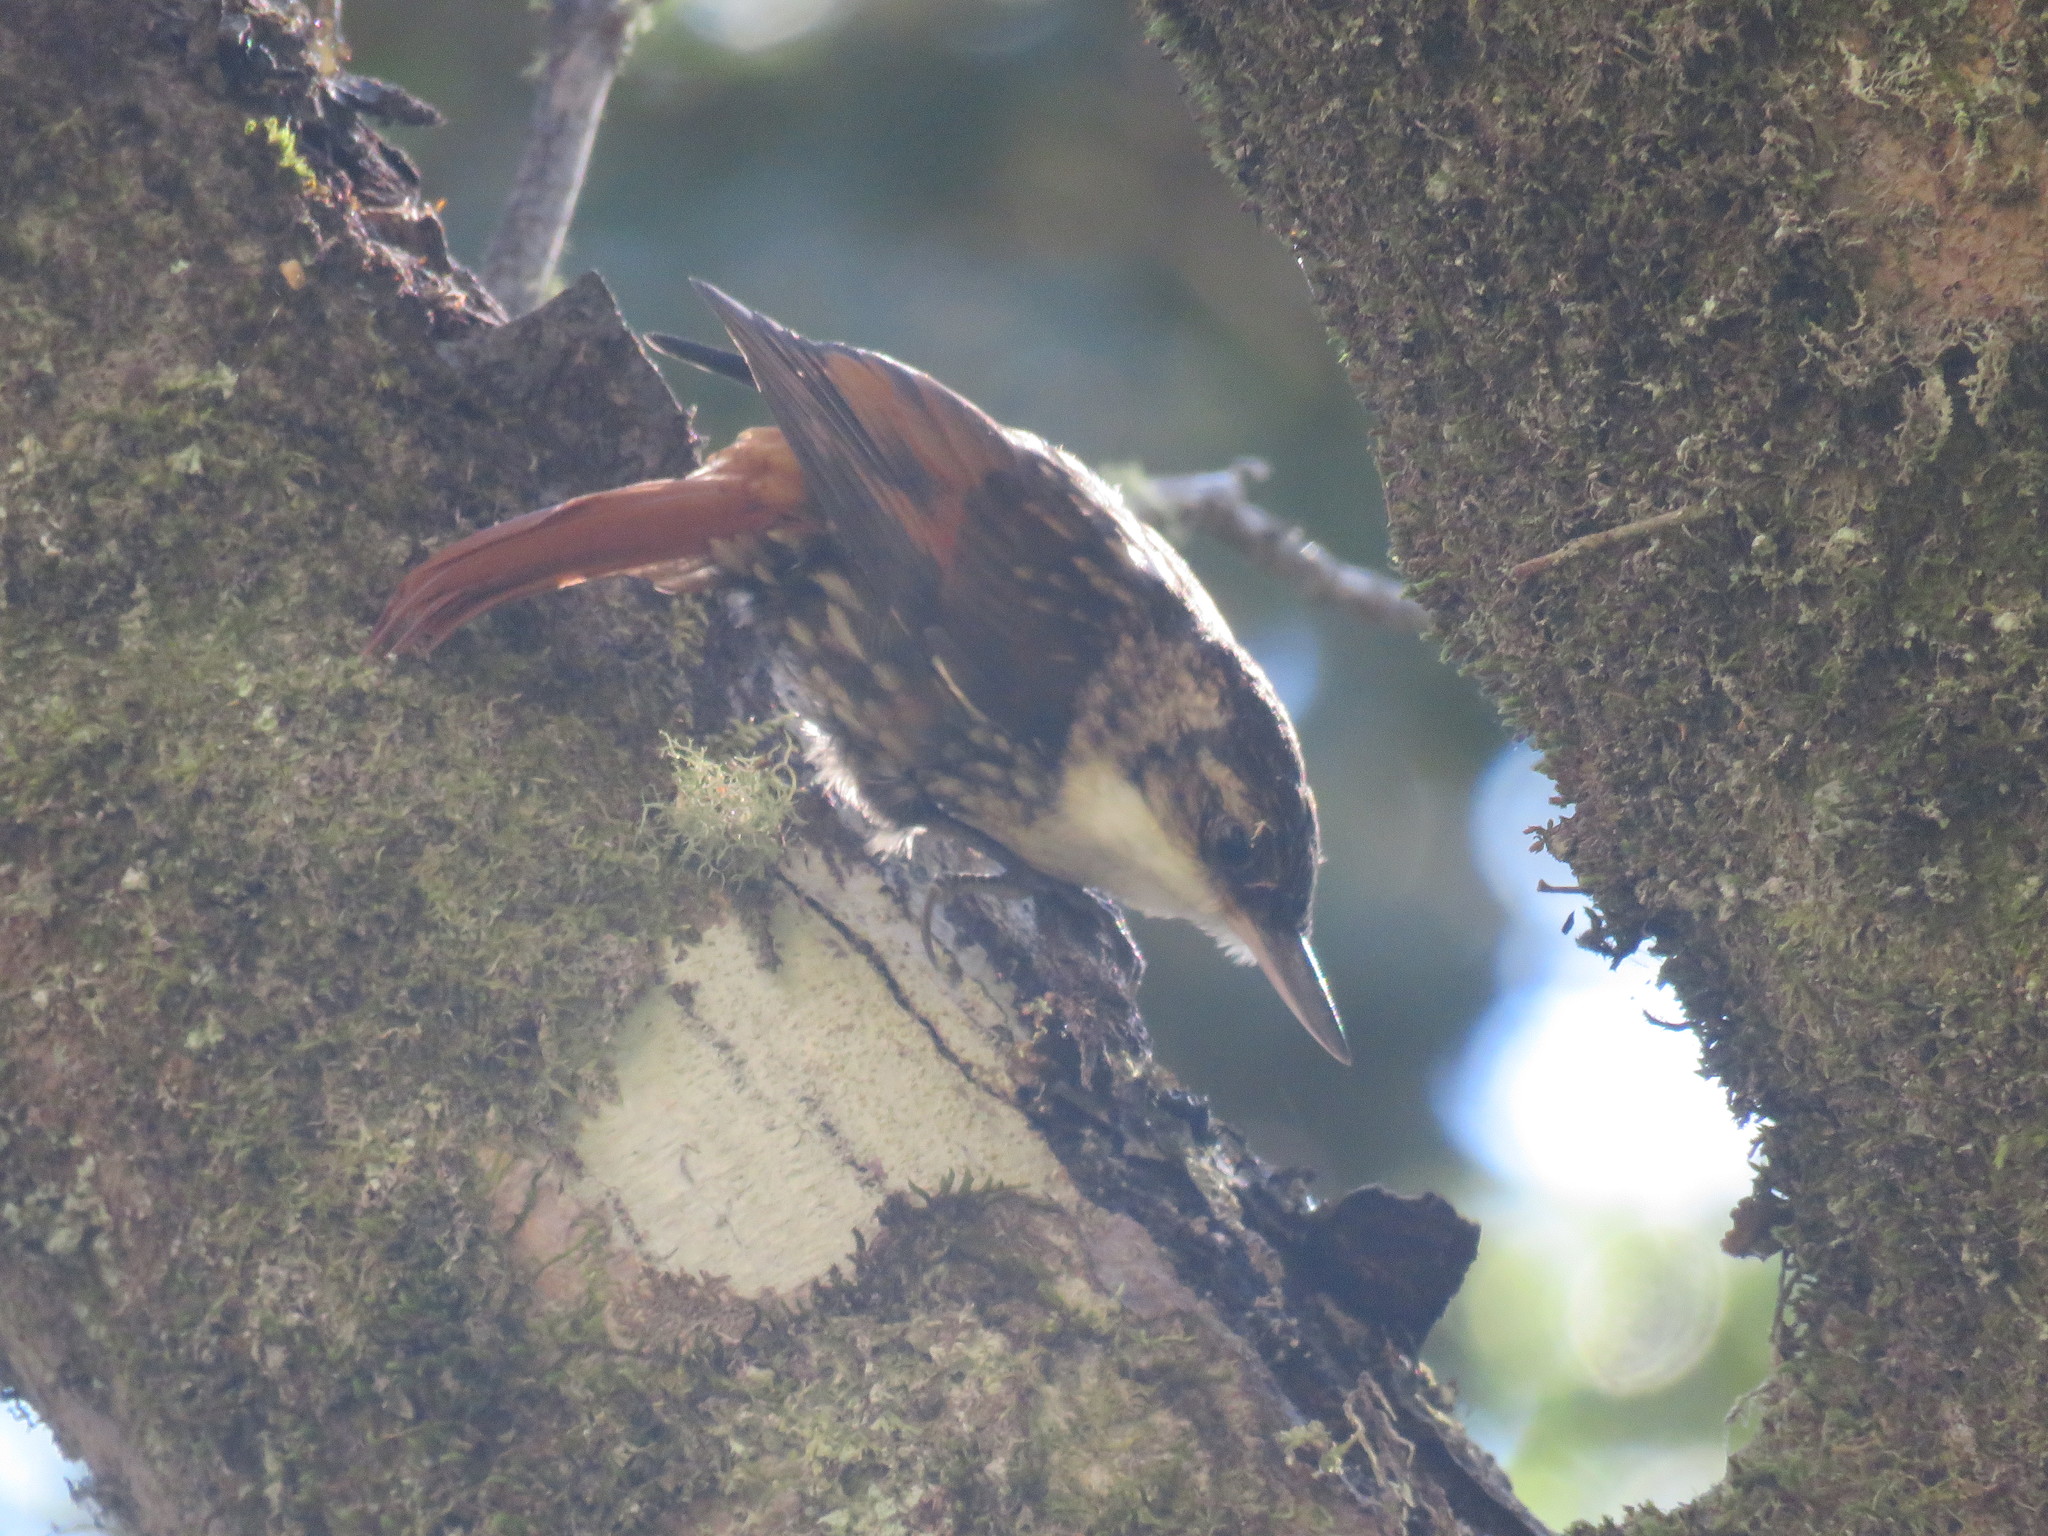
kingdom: Animalia
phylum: Chordata
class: Aves
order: Passeriformes
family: Furnariidae
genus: Pygarrhichas
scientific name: Pygarrhichas albogularis
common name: White-throated treerunner
